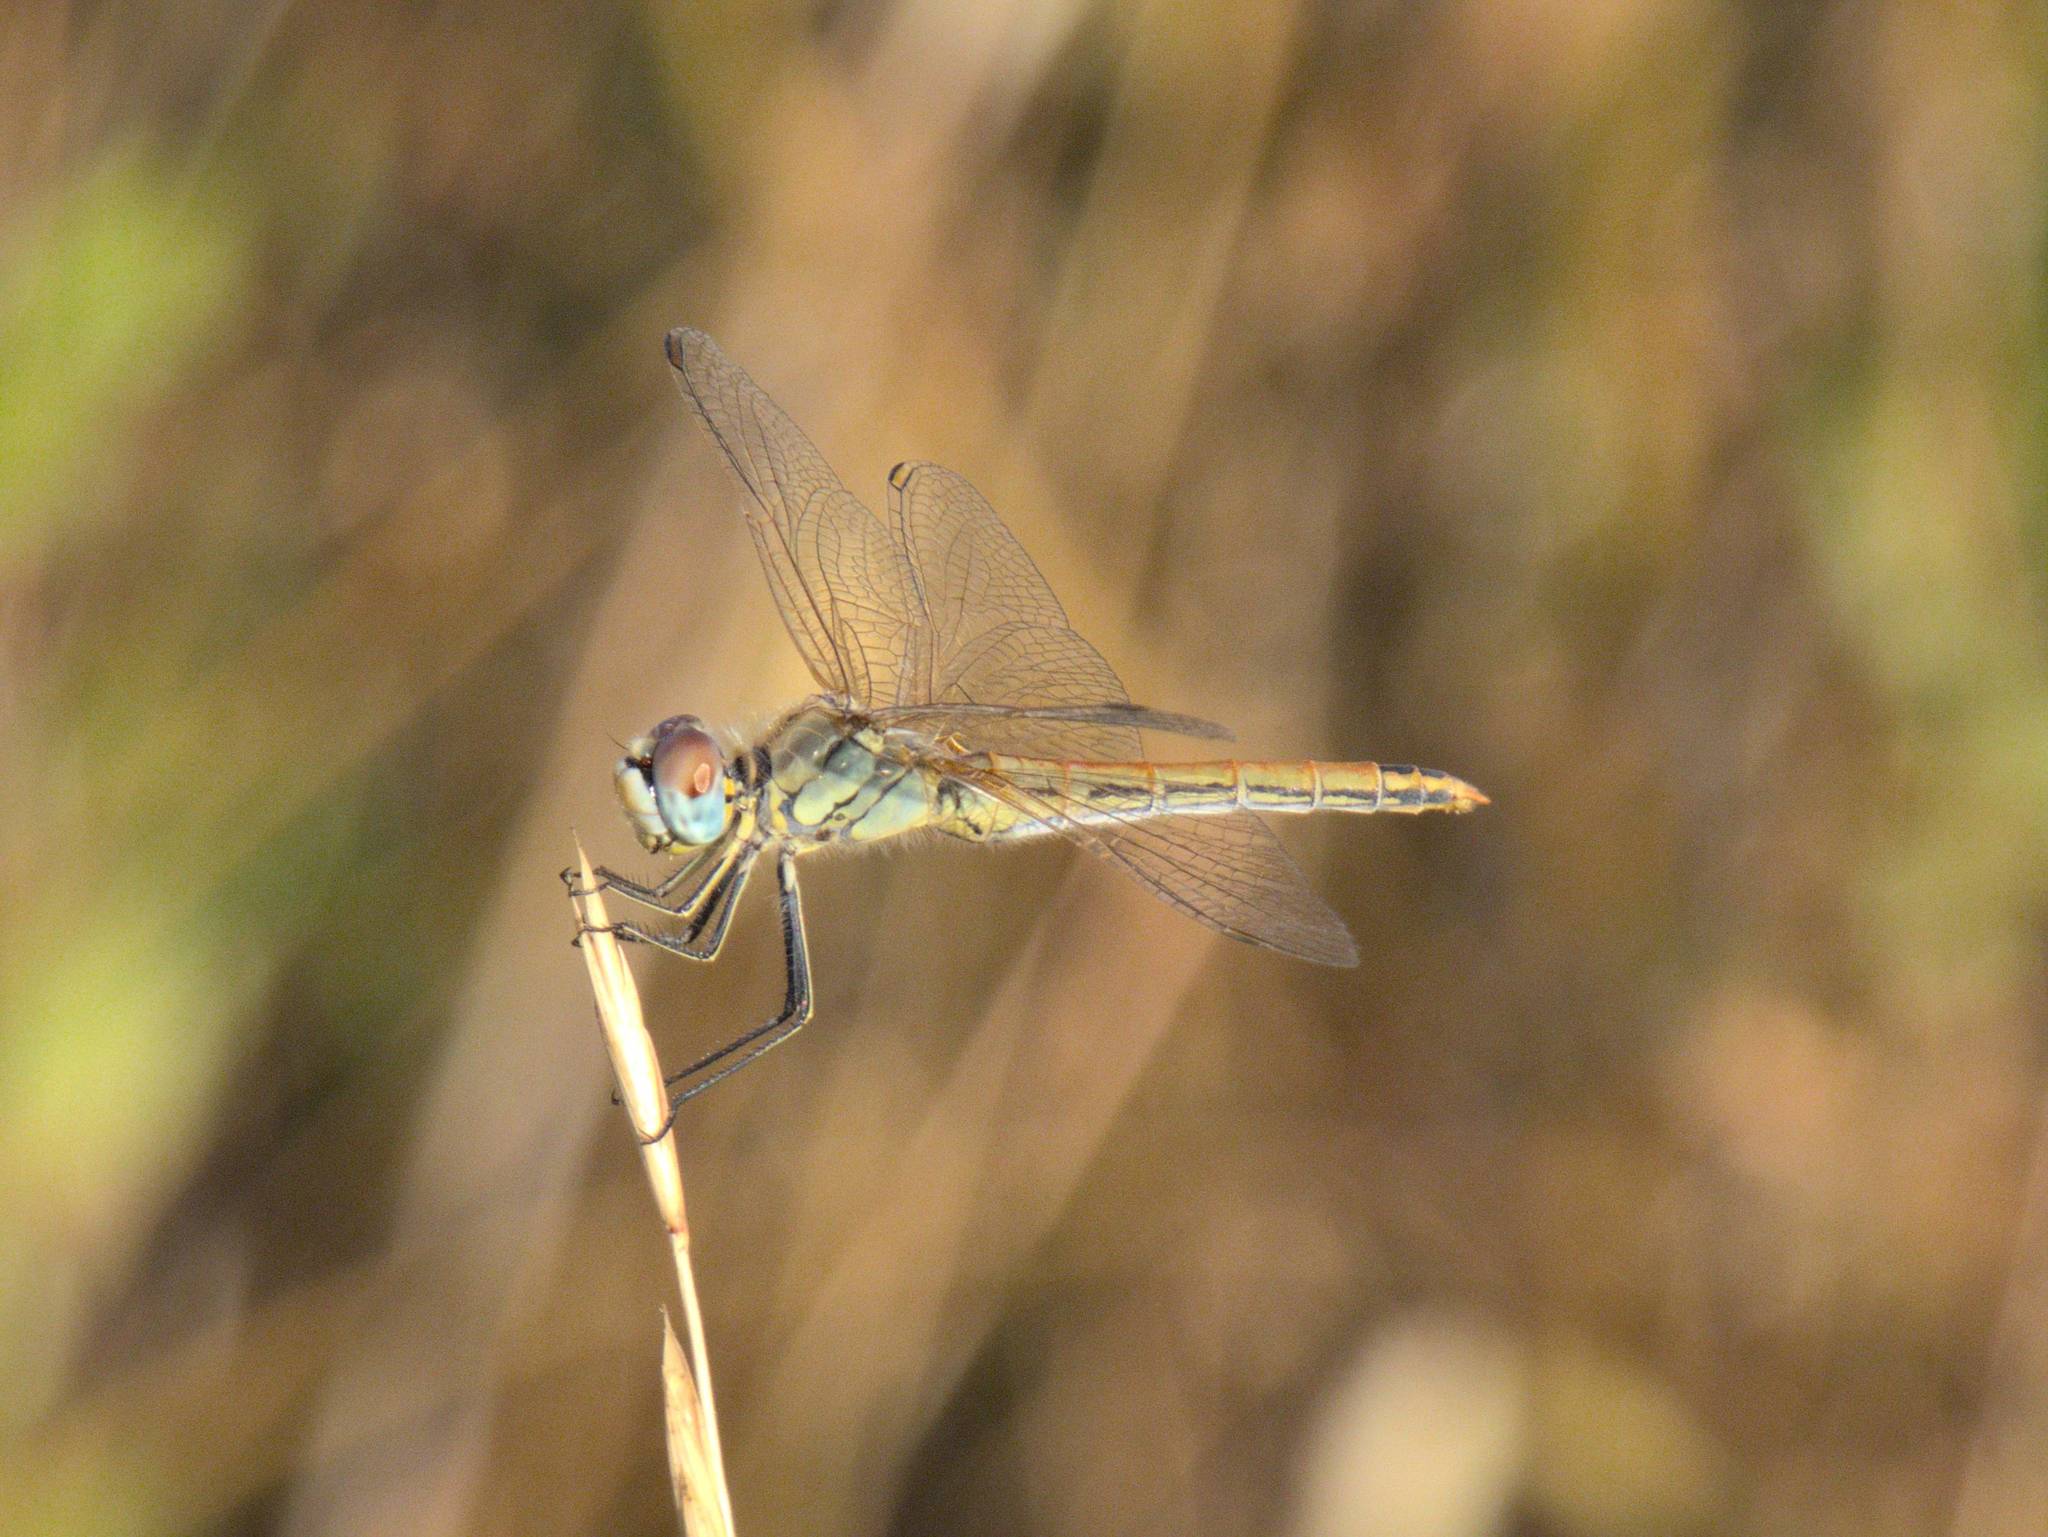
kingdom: Animalia
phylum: Arthropoda
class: Insecta
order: Odonata
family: Libellulidae
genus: Sympetrum
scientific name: Sympetrum fonscolombii
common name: Red-veined darter
